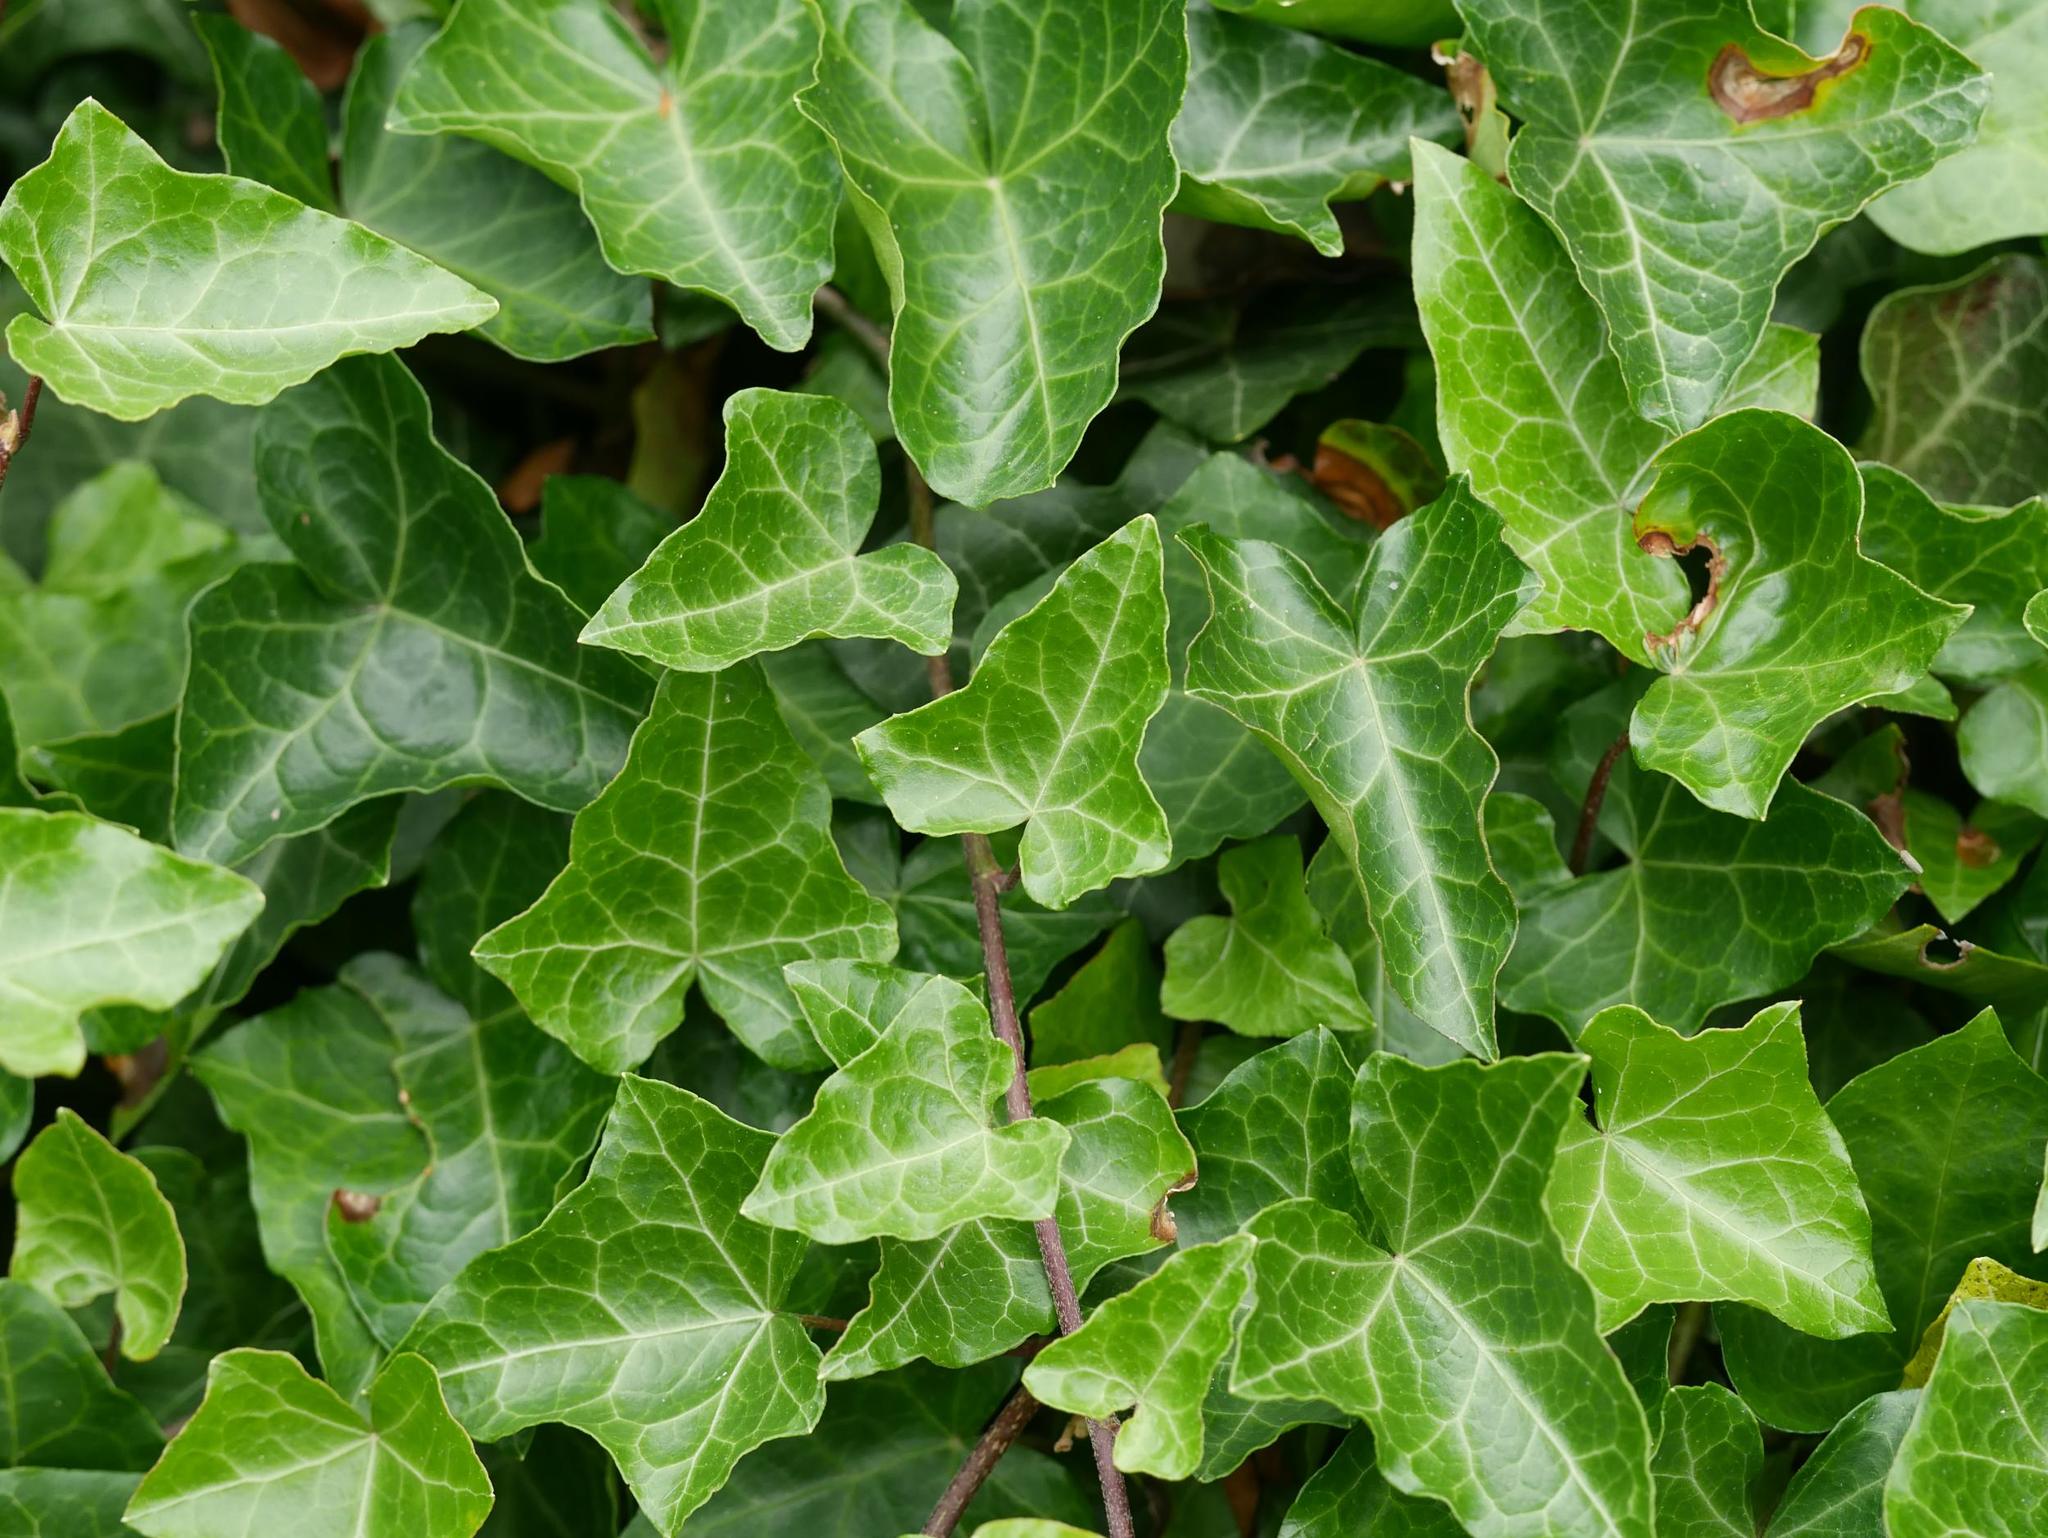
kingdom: Plantae
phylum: Tracheophyta
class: Magnoliopsida
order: Apiales
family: Araliaceae
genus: Hedera
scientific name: Hedera helix
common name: Ivy
